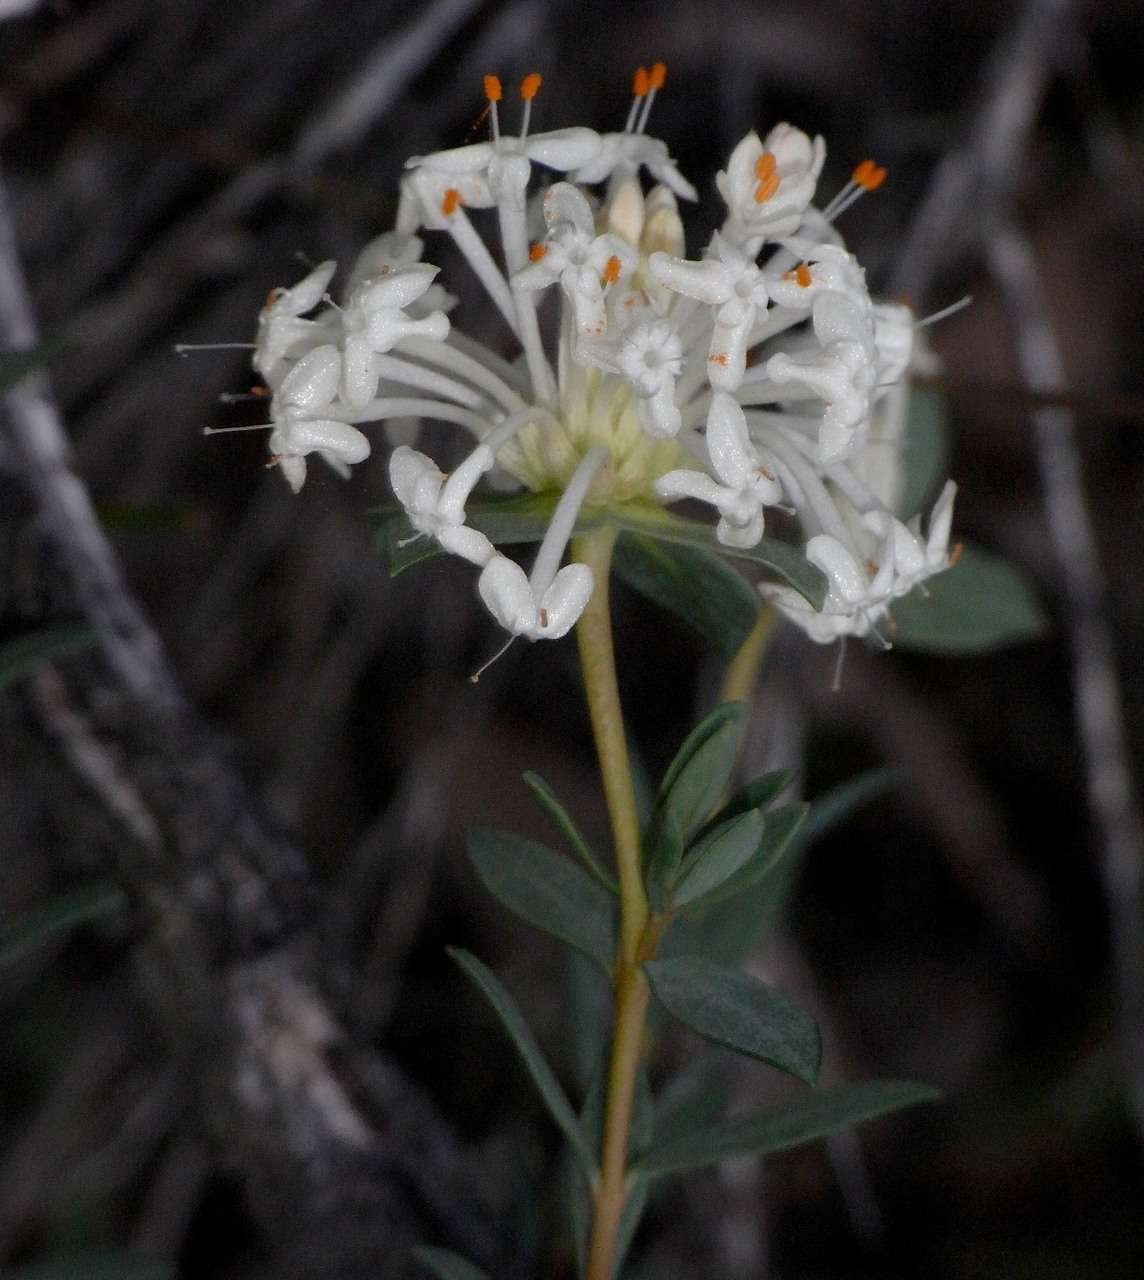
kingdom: Plantae
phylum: Tracheophyta
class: Magnoliopsida
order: Malvales
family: Thymelaeaceae
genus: Pimelea
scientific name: Pimelea linifolia
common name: Queen-of-the-bush
